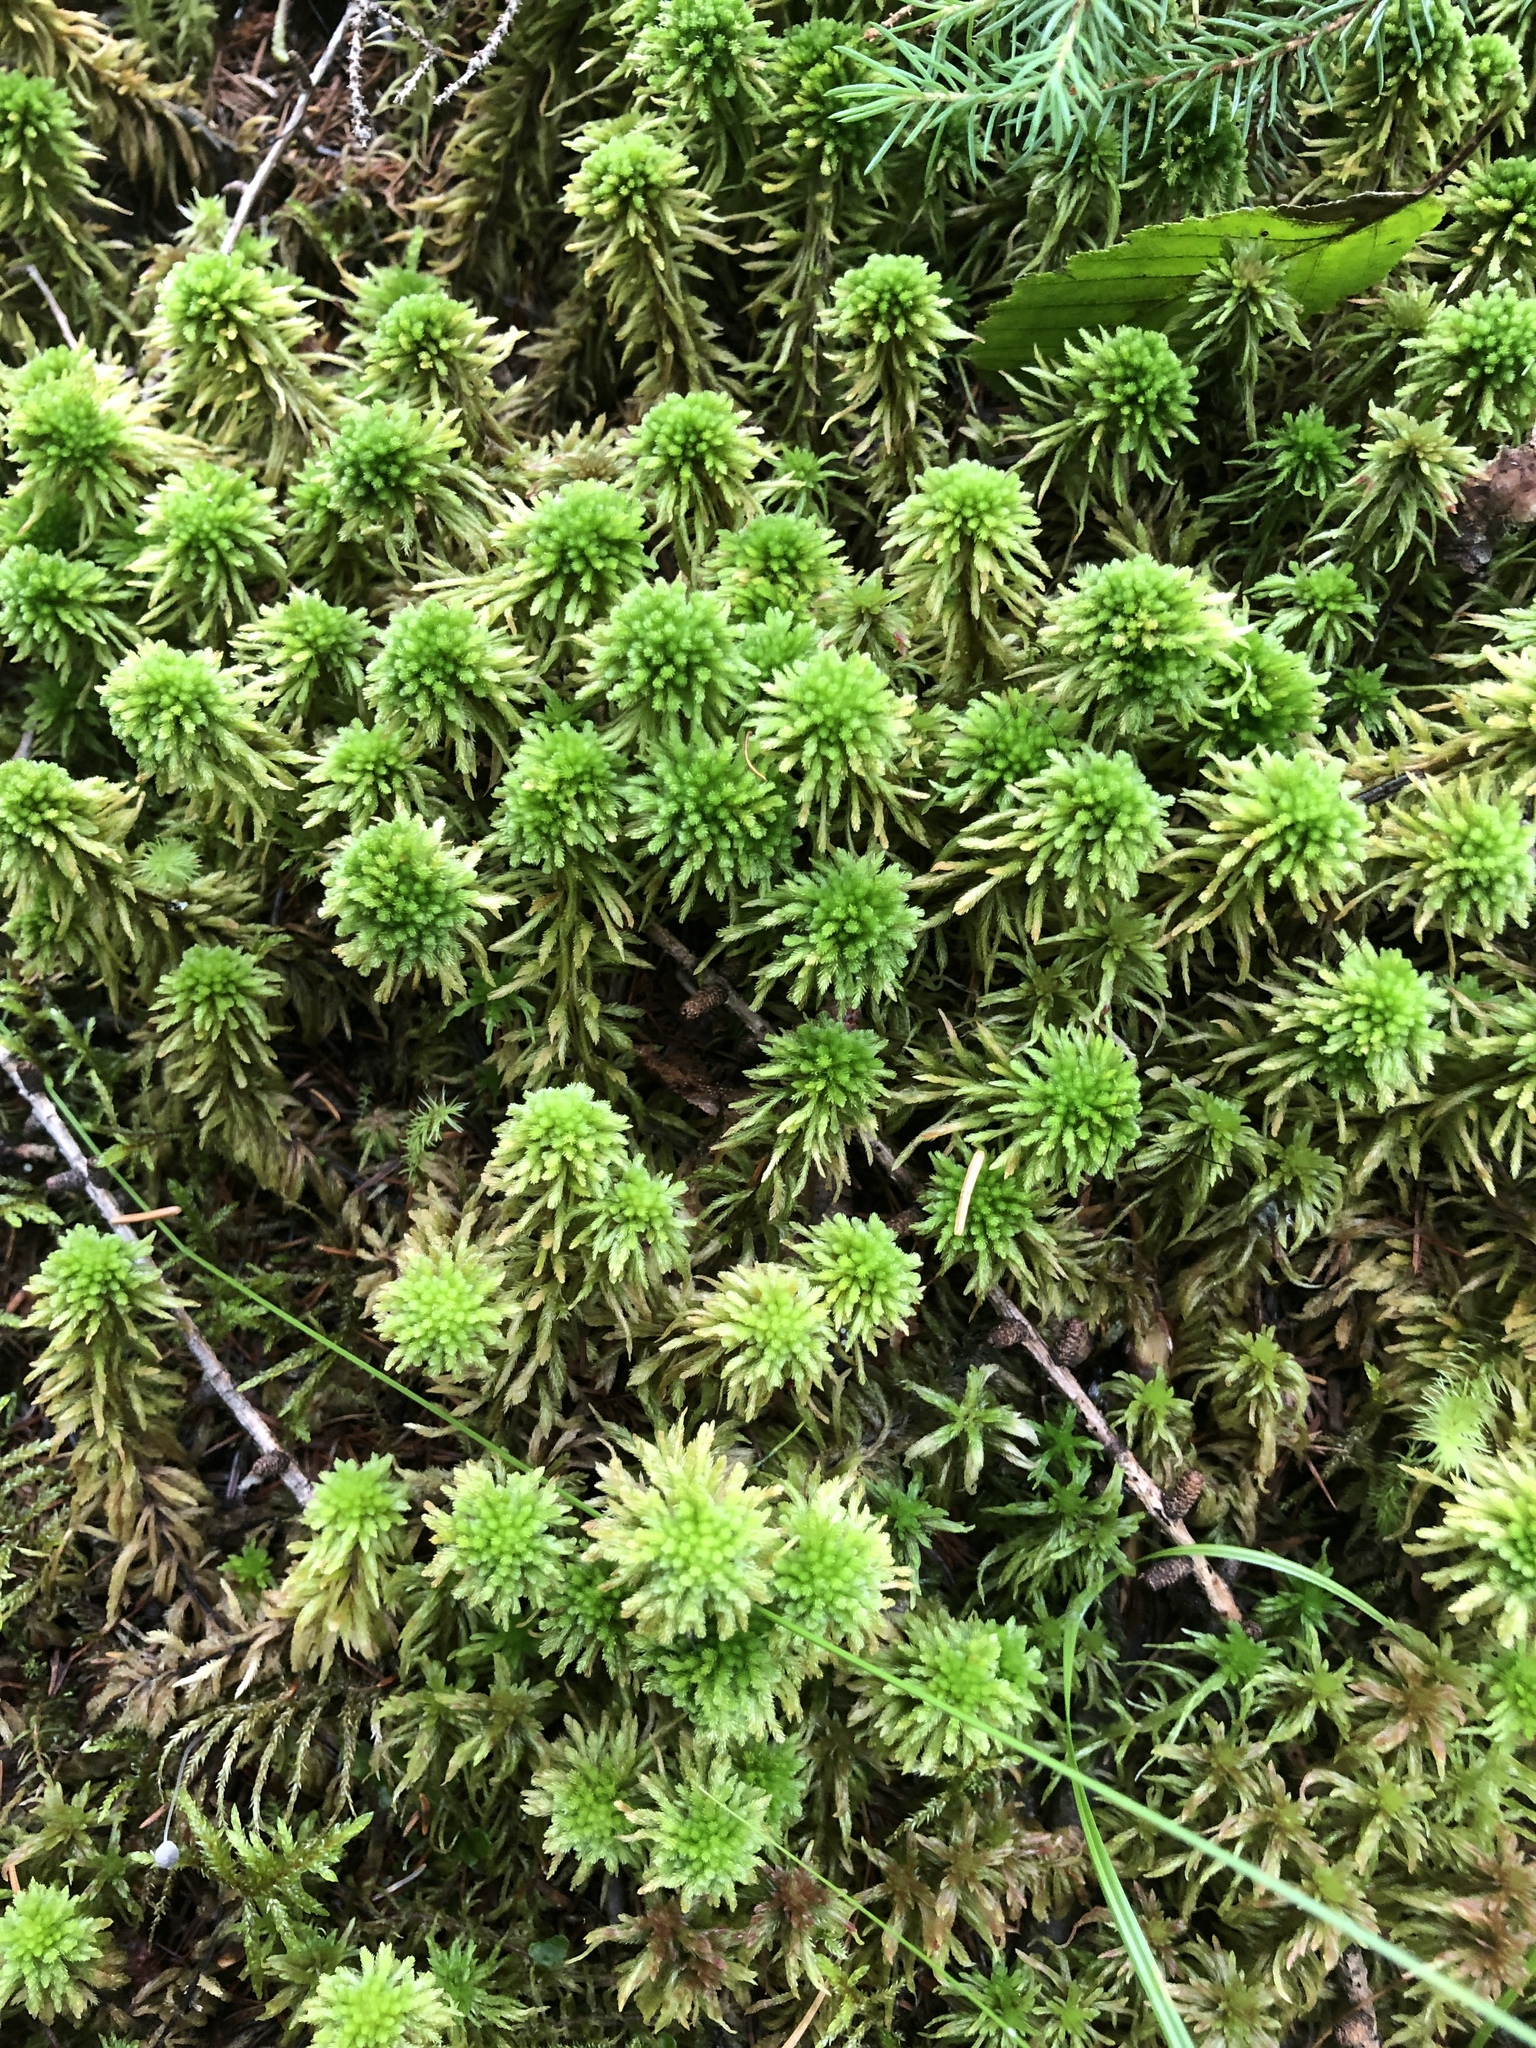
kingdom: Plantae
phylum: Bryophyta
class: Sphagnopsida
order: Sphagnales
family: Sphagnaceae
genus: Sphagnum
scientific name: Sphagnum wulfianum
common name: Wulf's peat moss
